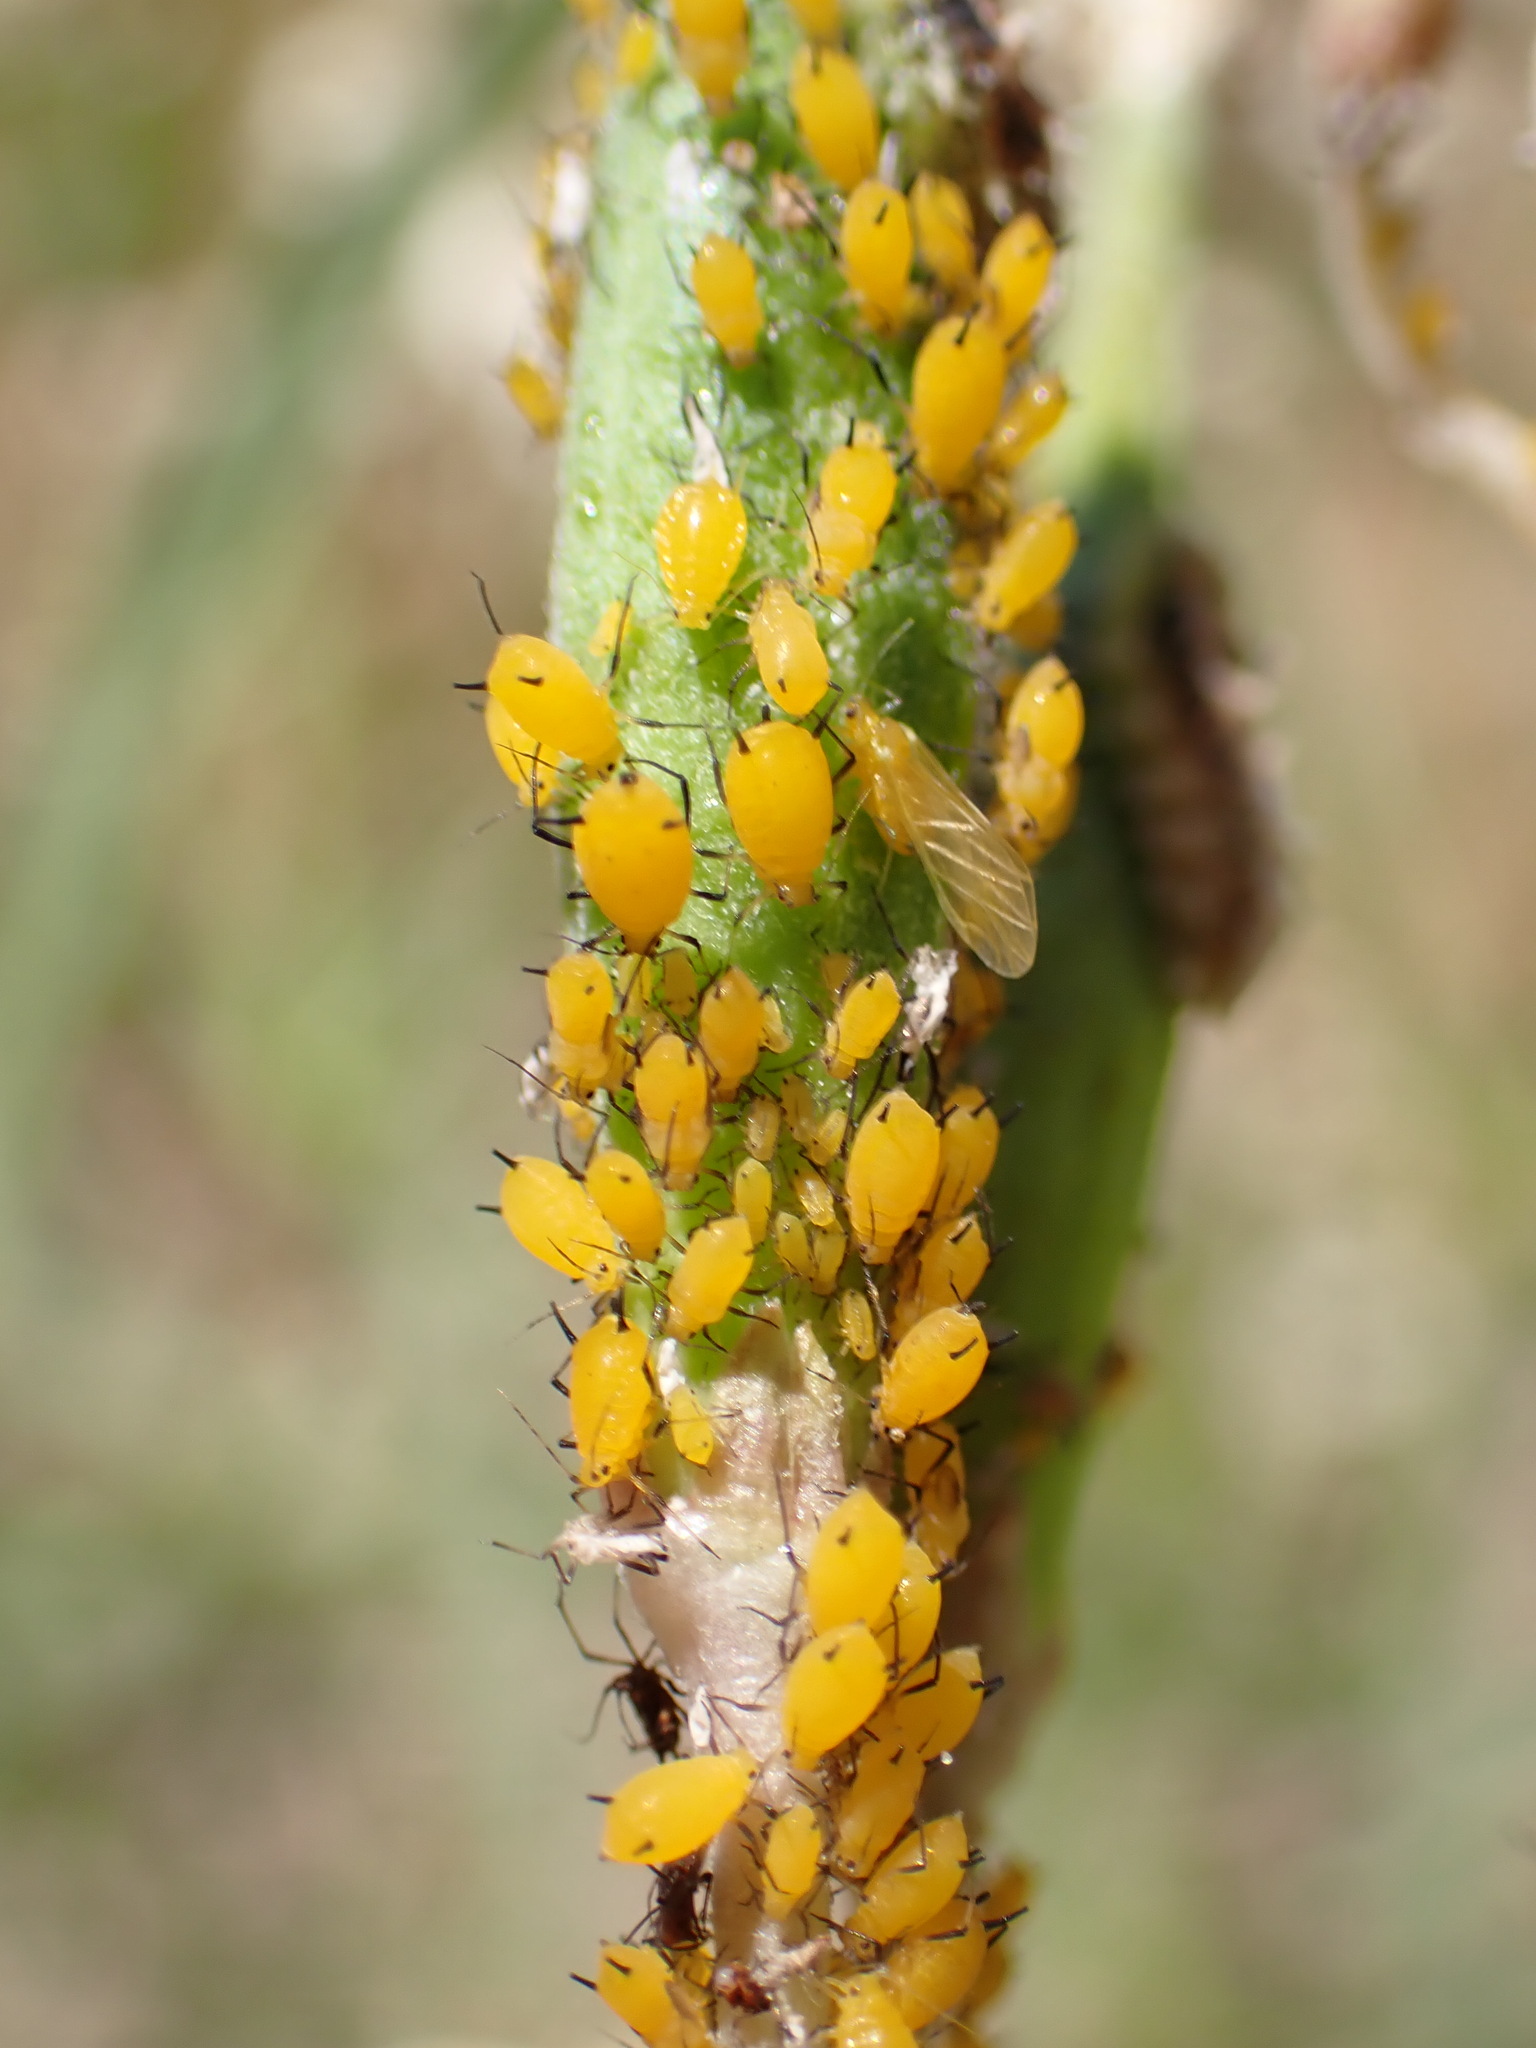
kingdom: Animalia
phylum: Arthropoda
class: Insecta
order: Hemiptera
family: Aphididae
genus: Aphis
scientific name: Aphis nerii
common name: Oleander aphid
